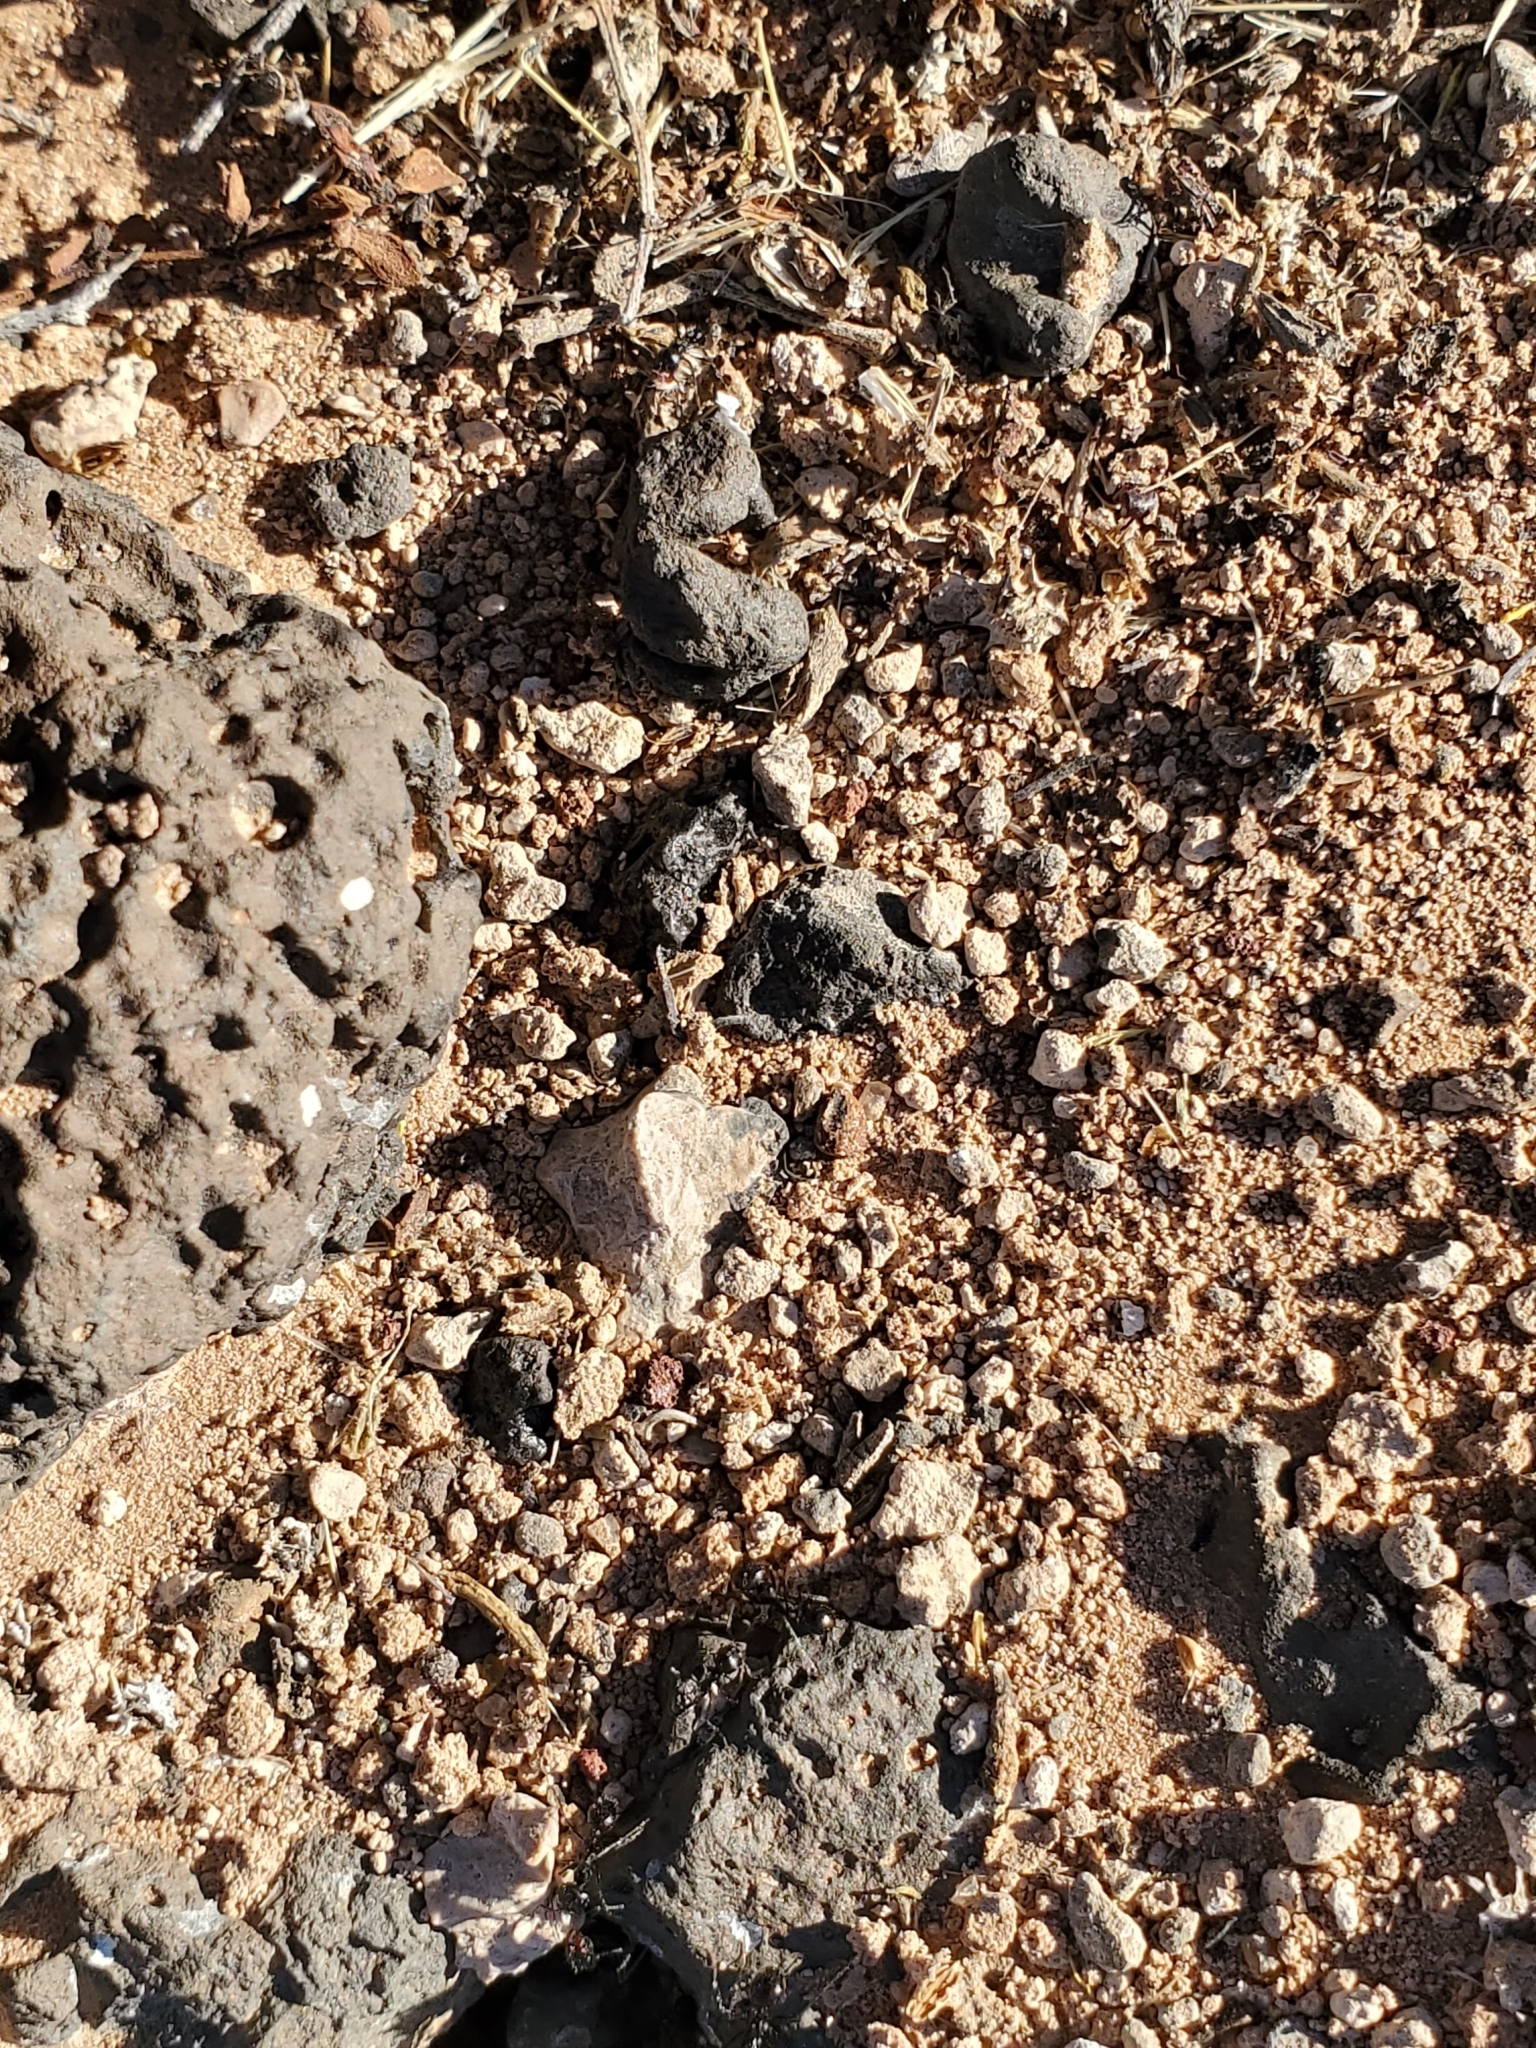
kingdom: Animalia
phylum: Arthropoda
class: Insecta
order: Hymenoptera
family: Formicidae
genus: Messor
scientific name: Messor pergandei
